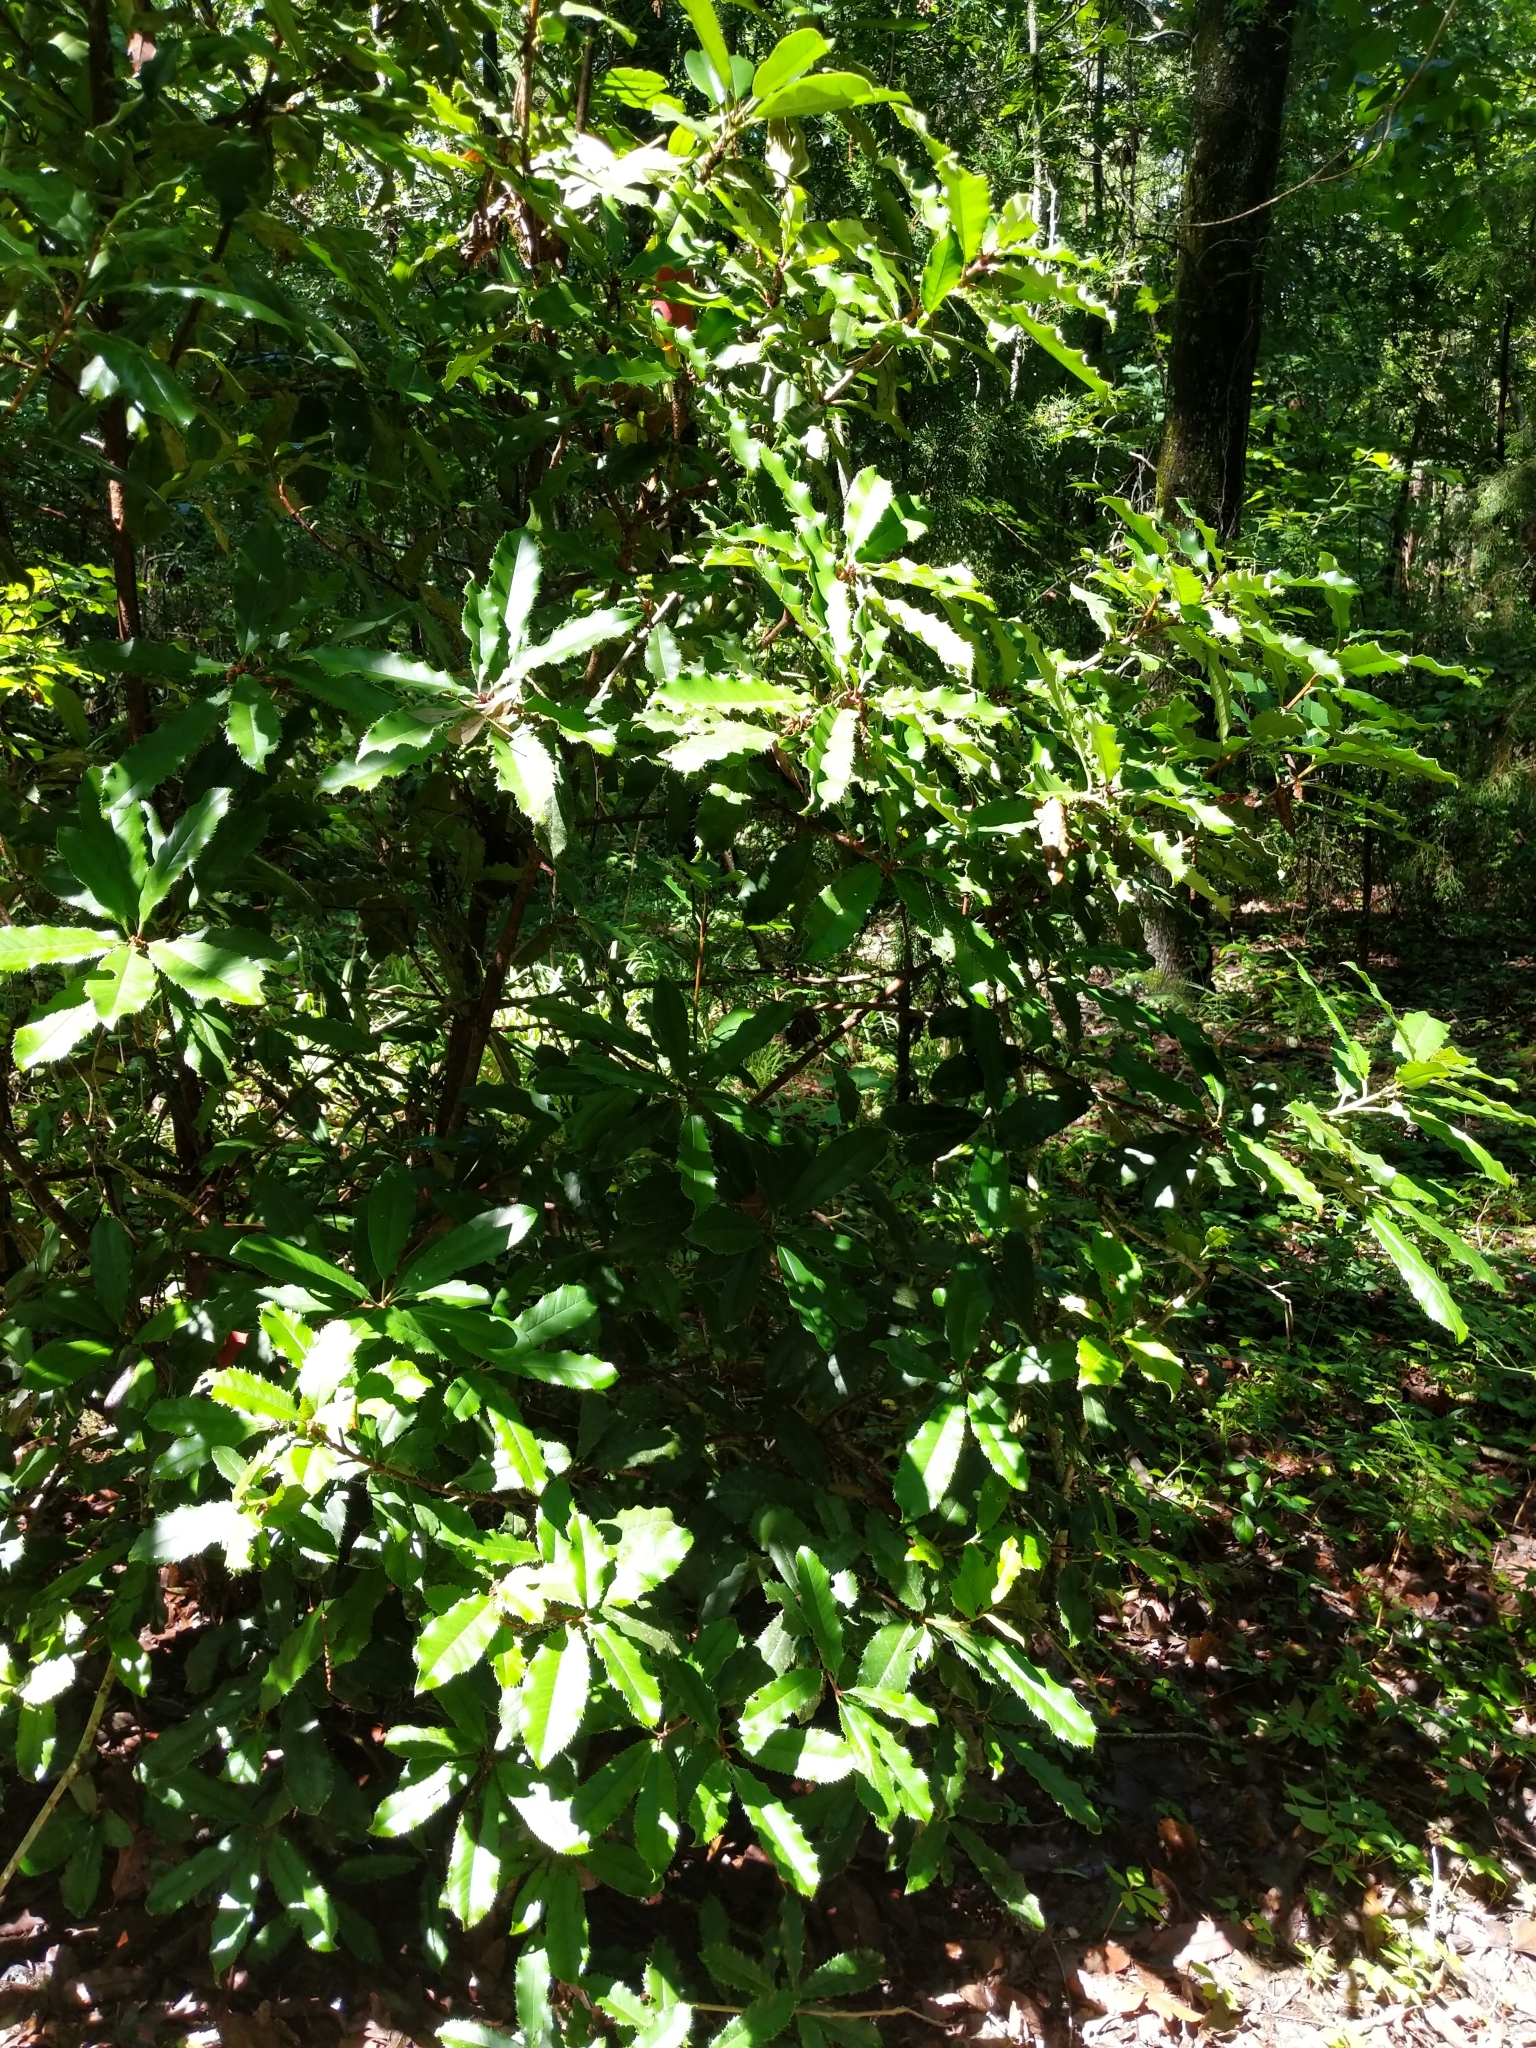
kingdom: Plantae
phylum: Tracheophyta
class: Magnoliopsida
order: Rosales
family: Rosaceae
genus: Photinia
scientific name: Photinia serratifolia
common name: Taiwanese photinia
